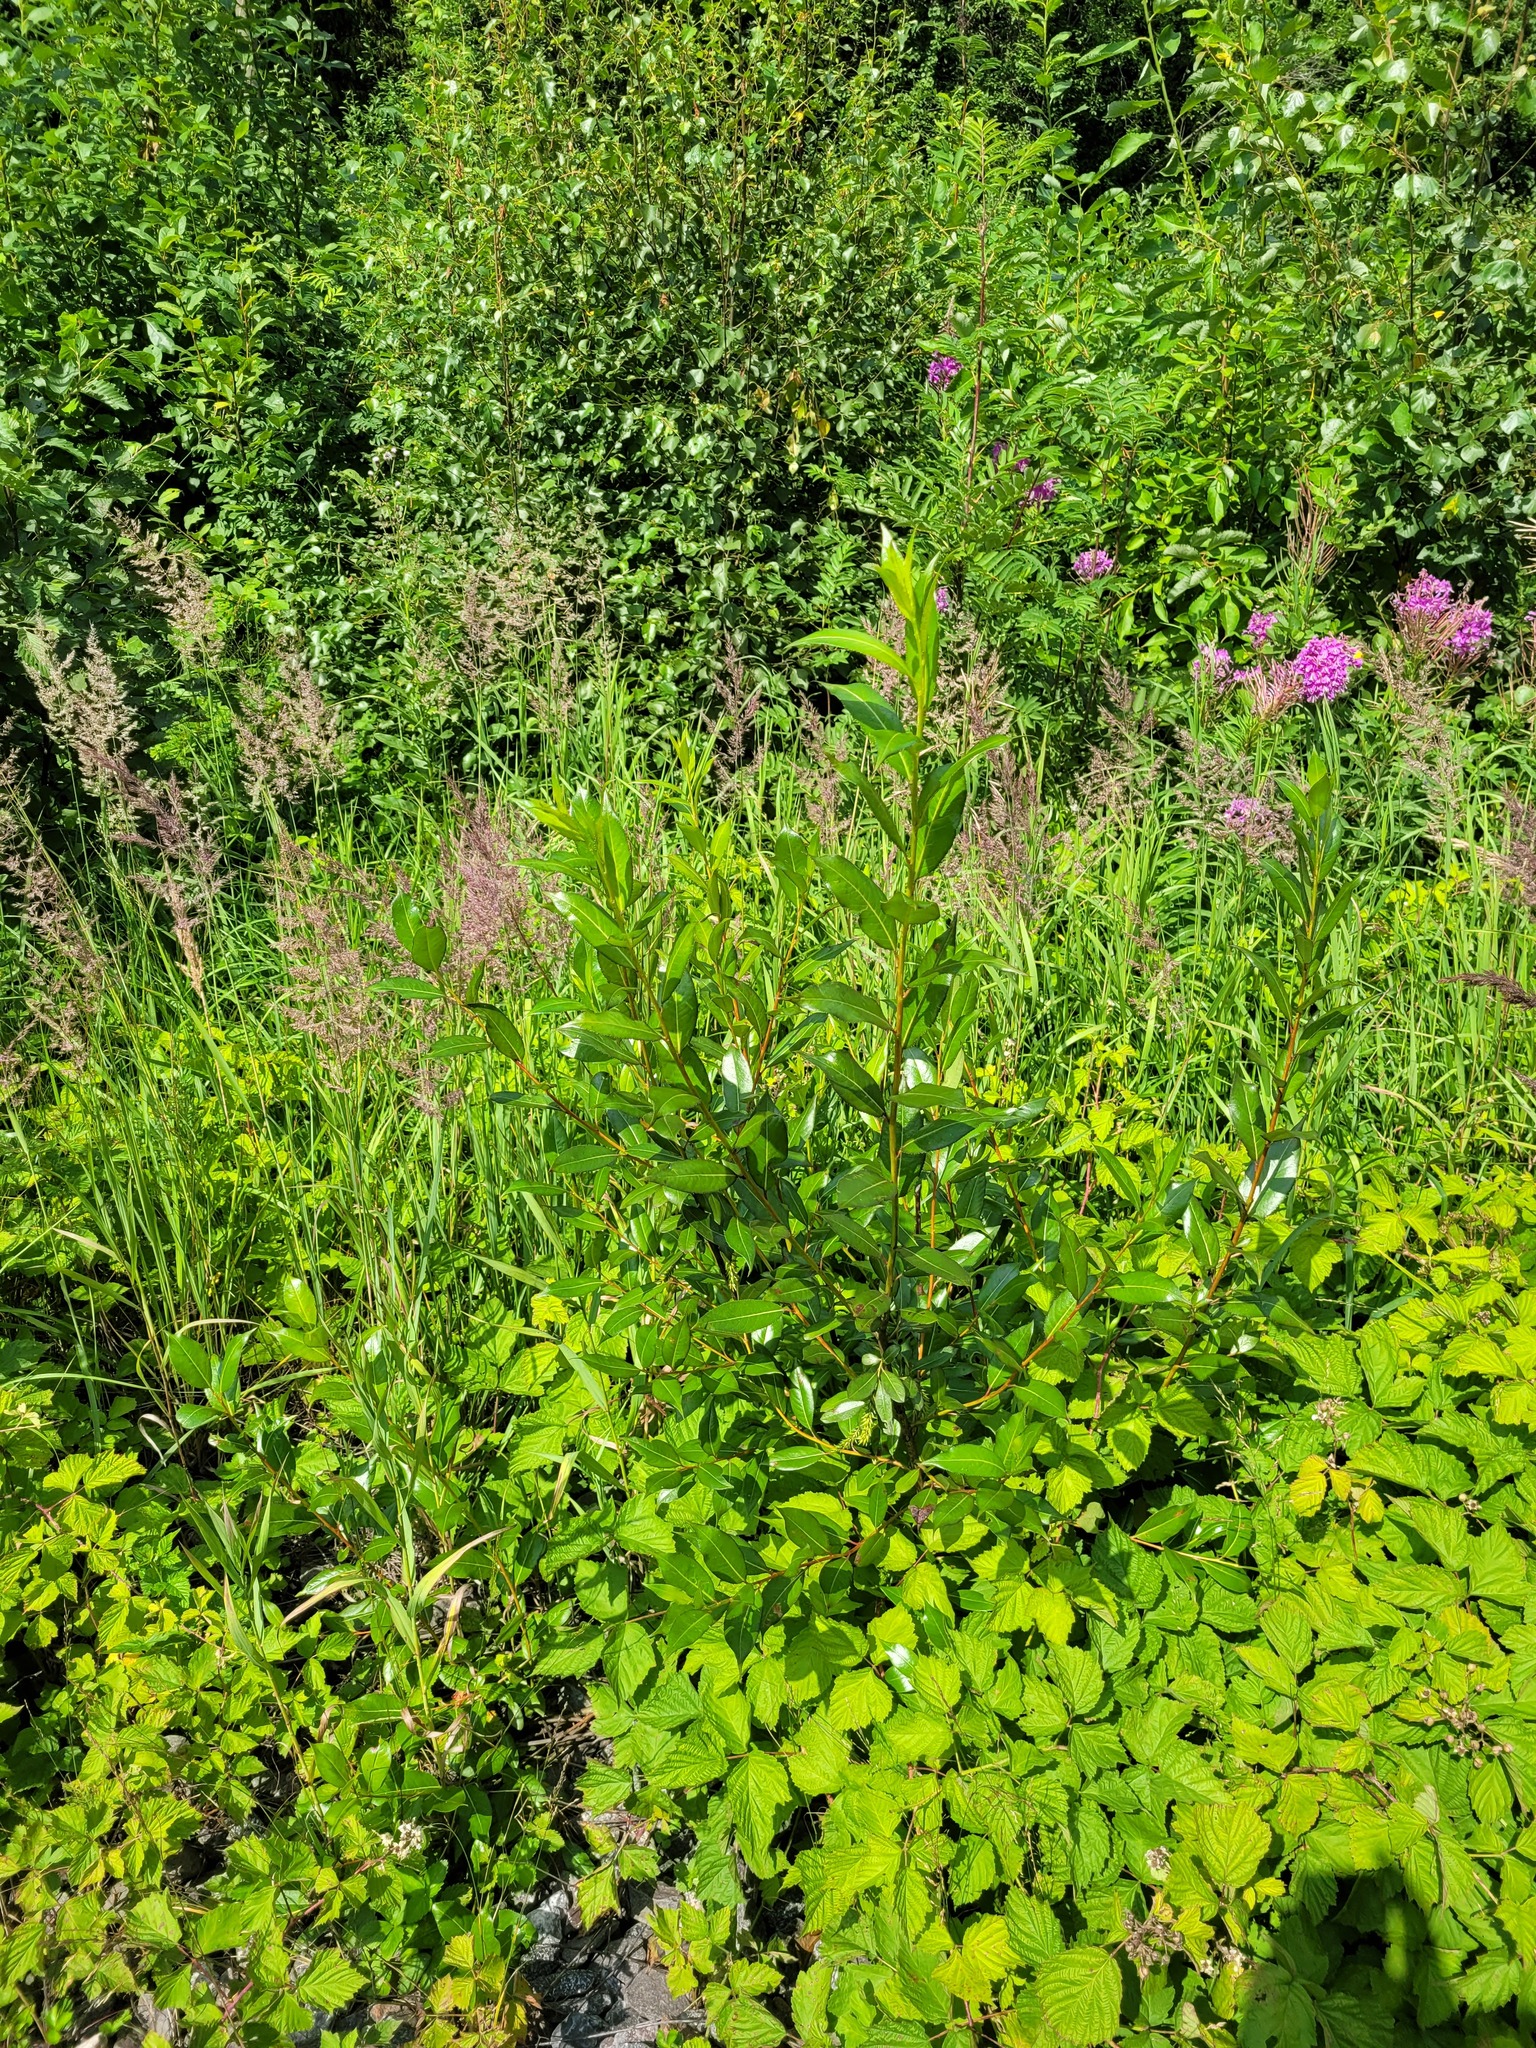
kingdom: Plantae
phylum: Tracheophyta
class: Magnoliopsida
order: Malpighiales
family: Salicaceae
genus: Salix
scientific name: Salix pentandra
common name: Bay willow
